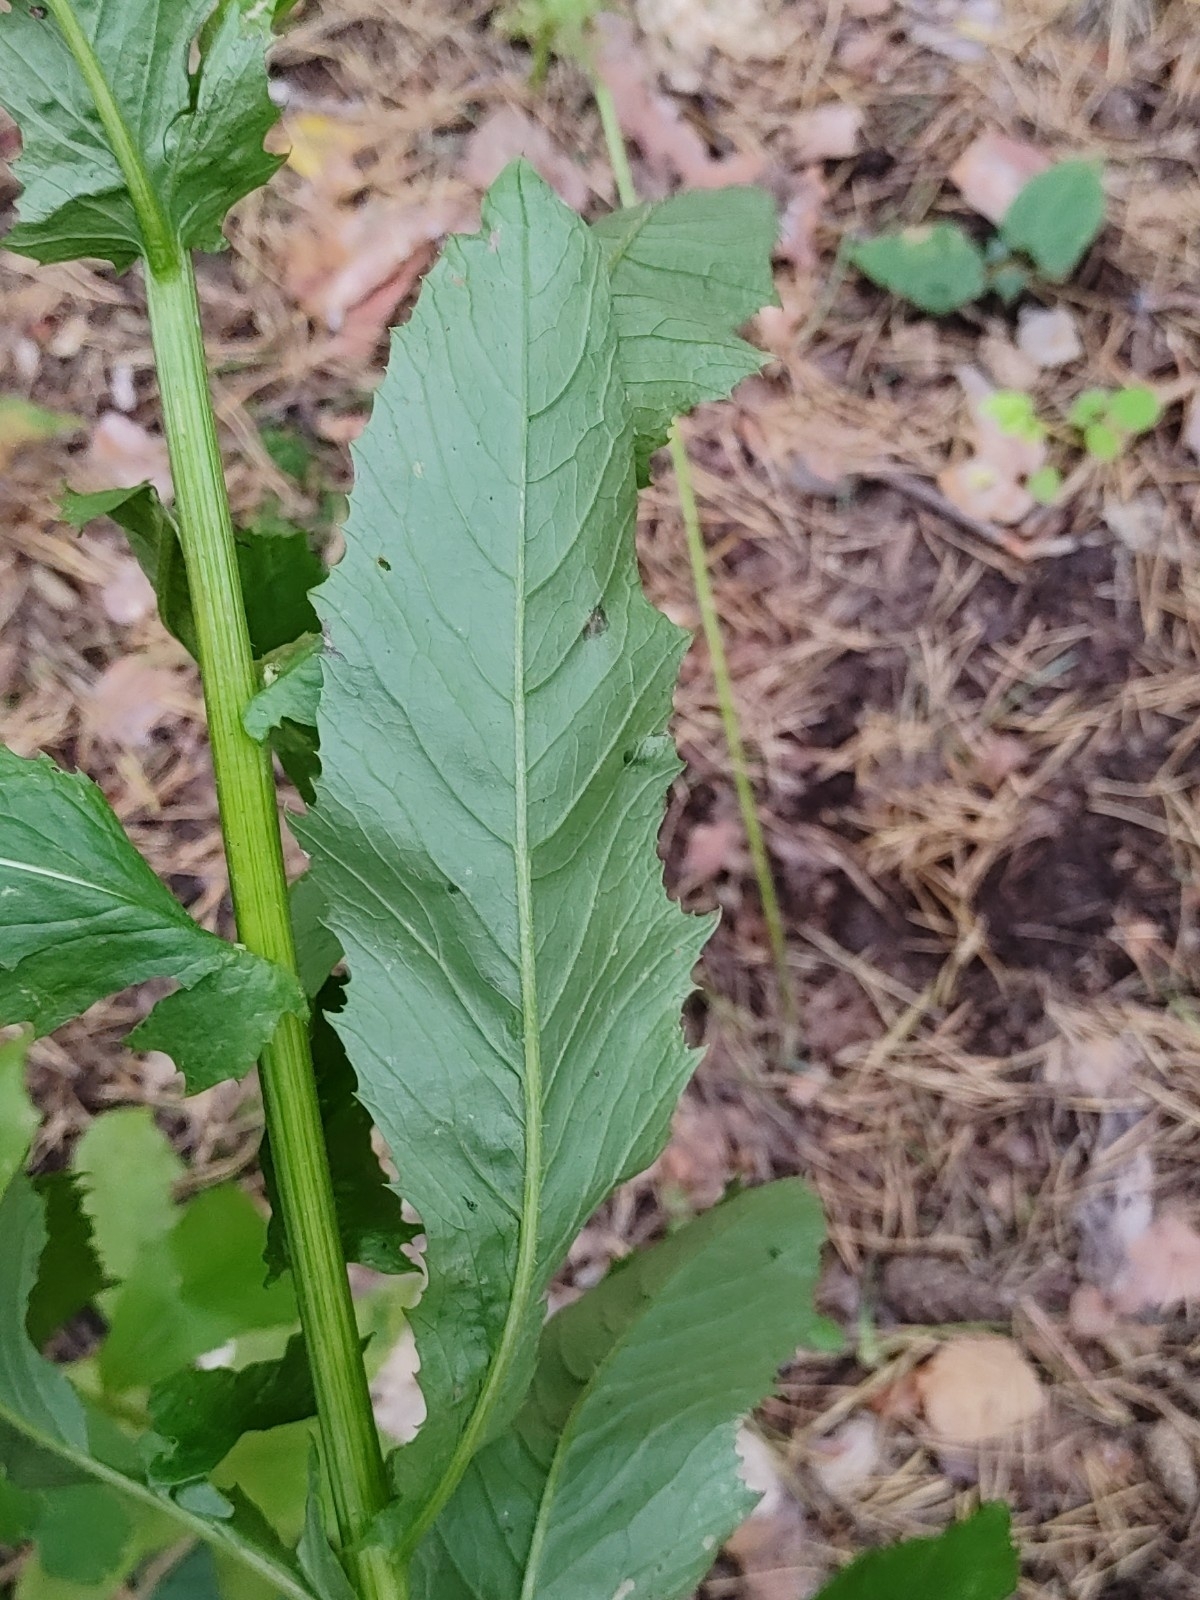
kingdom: Plantae
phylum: Tracheophyta
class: Magnoliopsida
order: Asterales
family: Asteraceae
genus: Erechtites
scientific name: Erechtites hieraciifolius
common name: American burnweed
